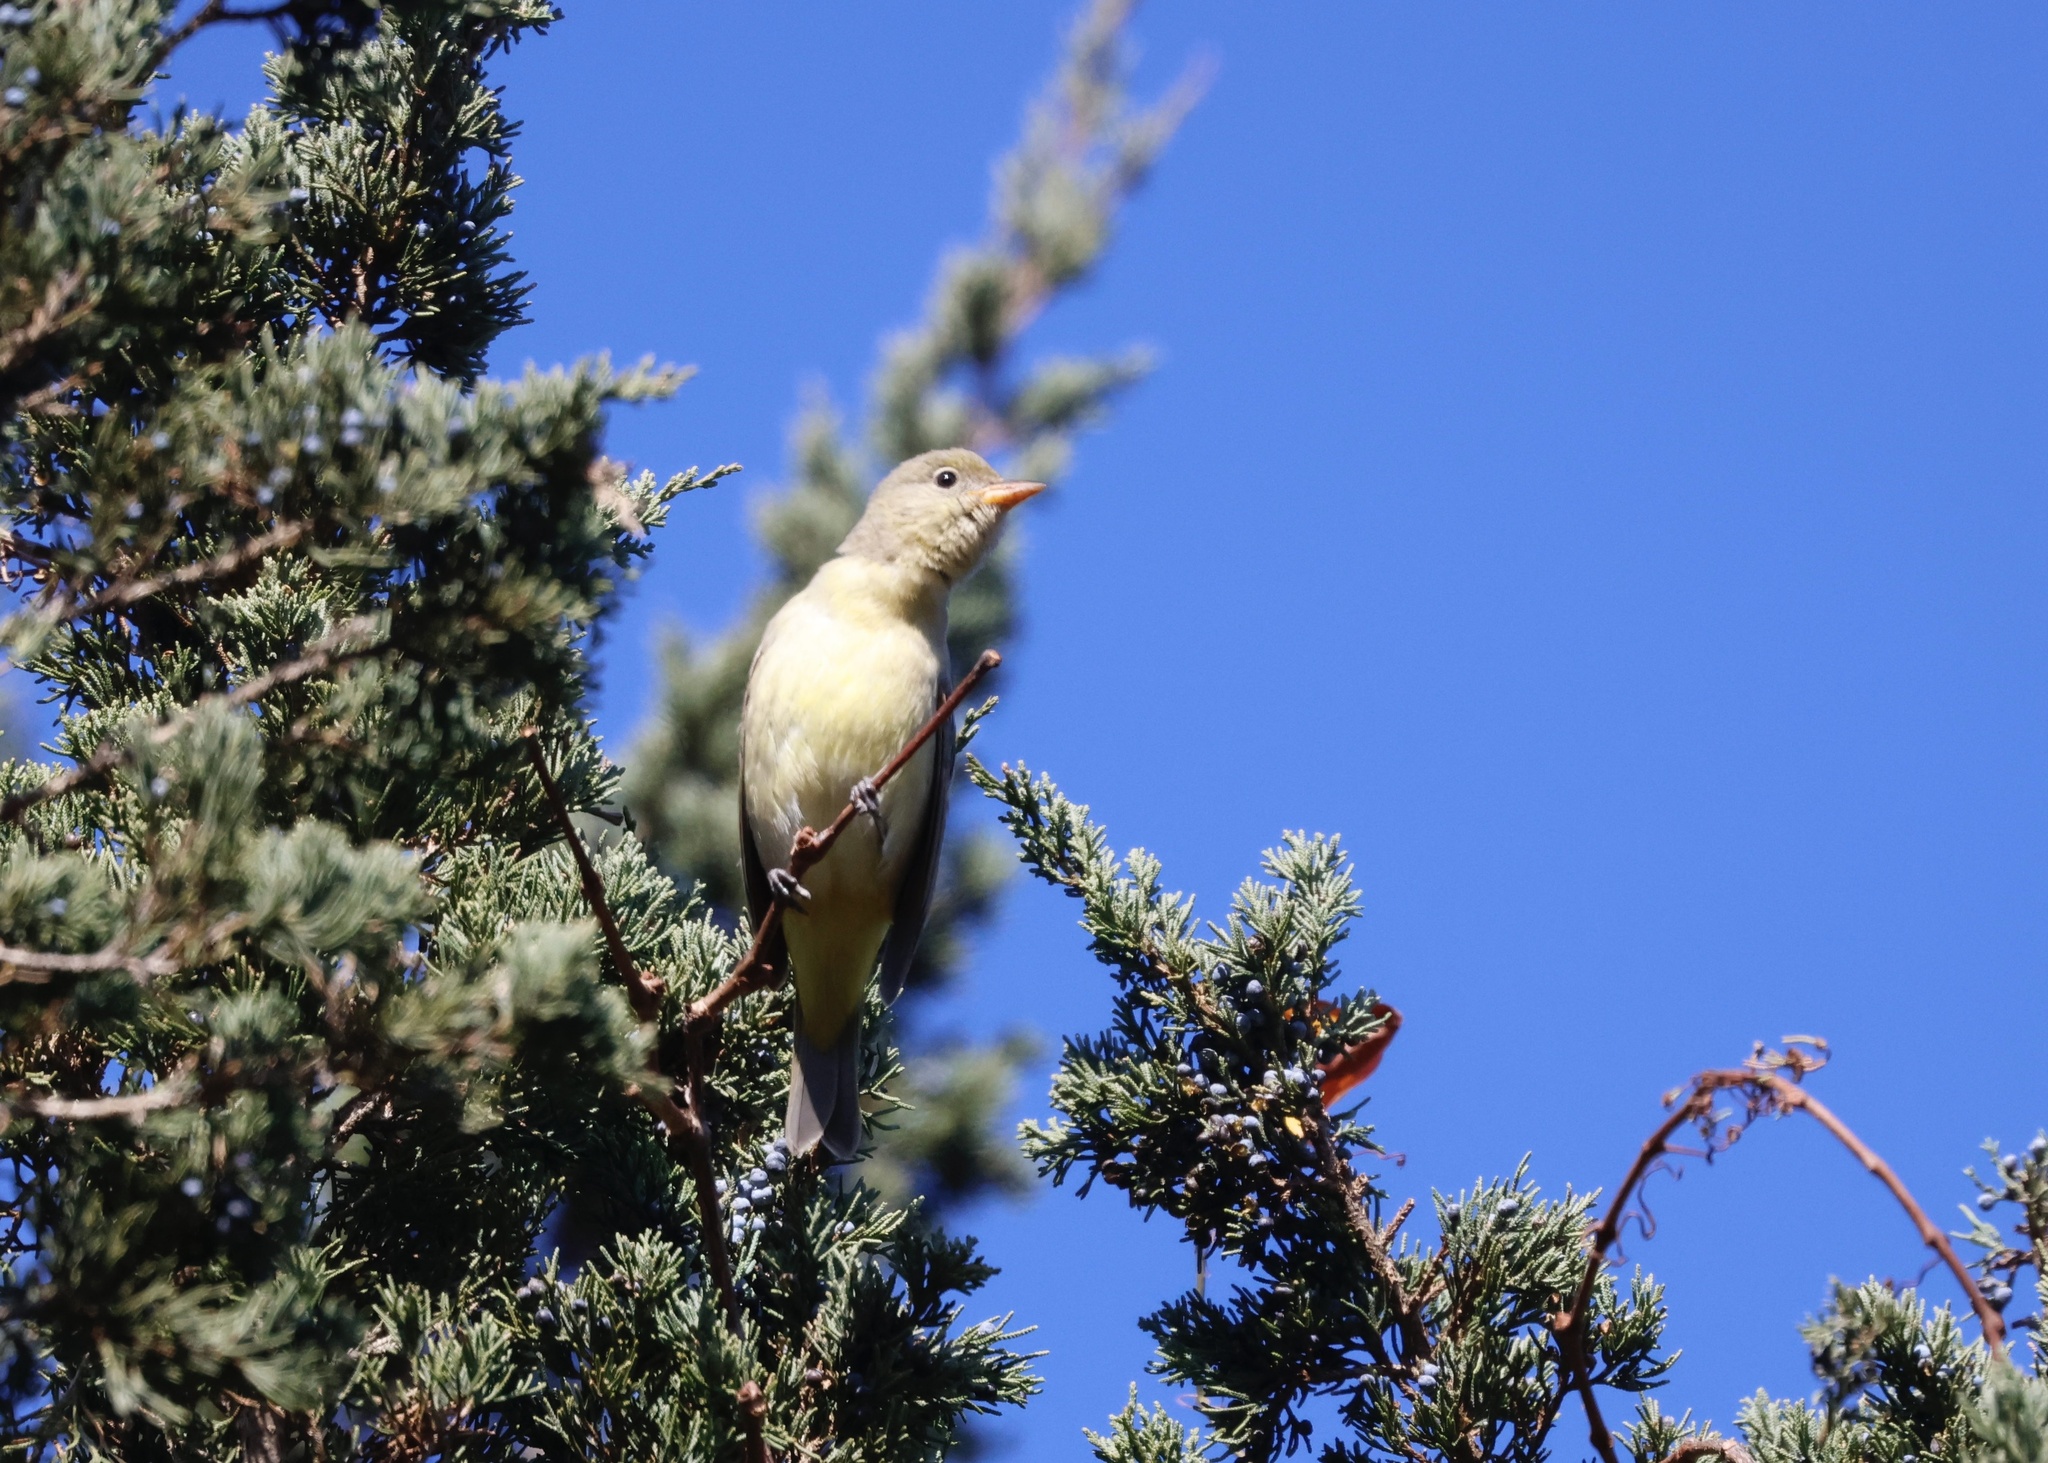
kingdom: Animalia
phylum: Chordata
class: Aves
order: Passeriformes
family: Cardinalidae
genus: Piranga
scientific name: Piranga ludoviciana
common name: Western tanager
